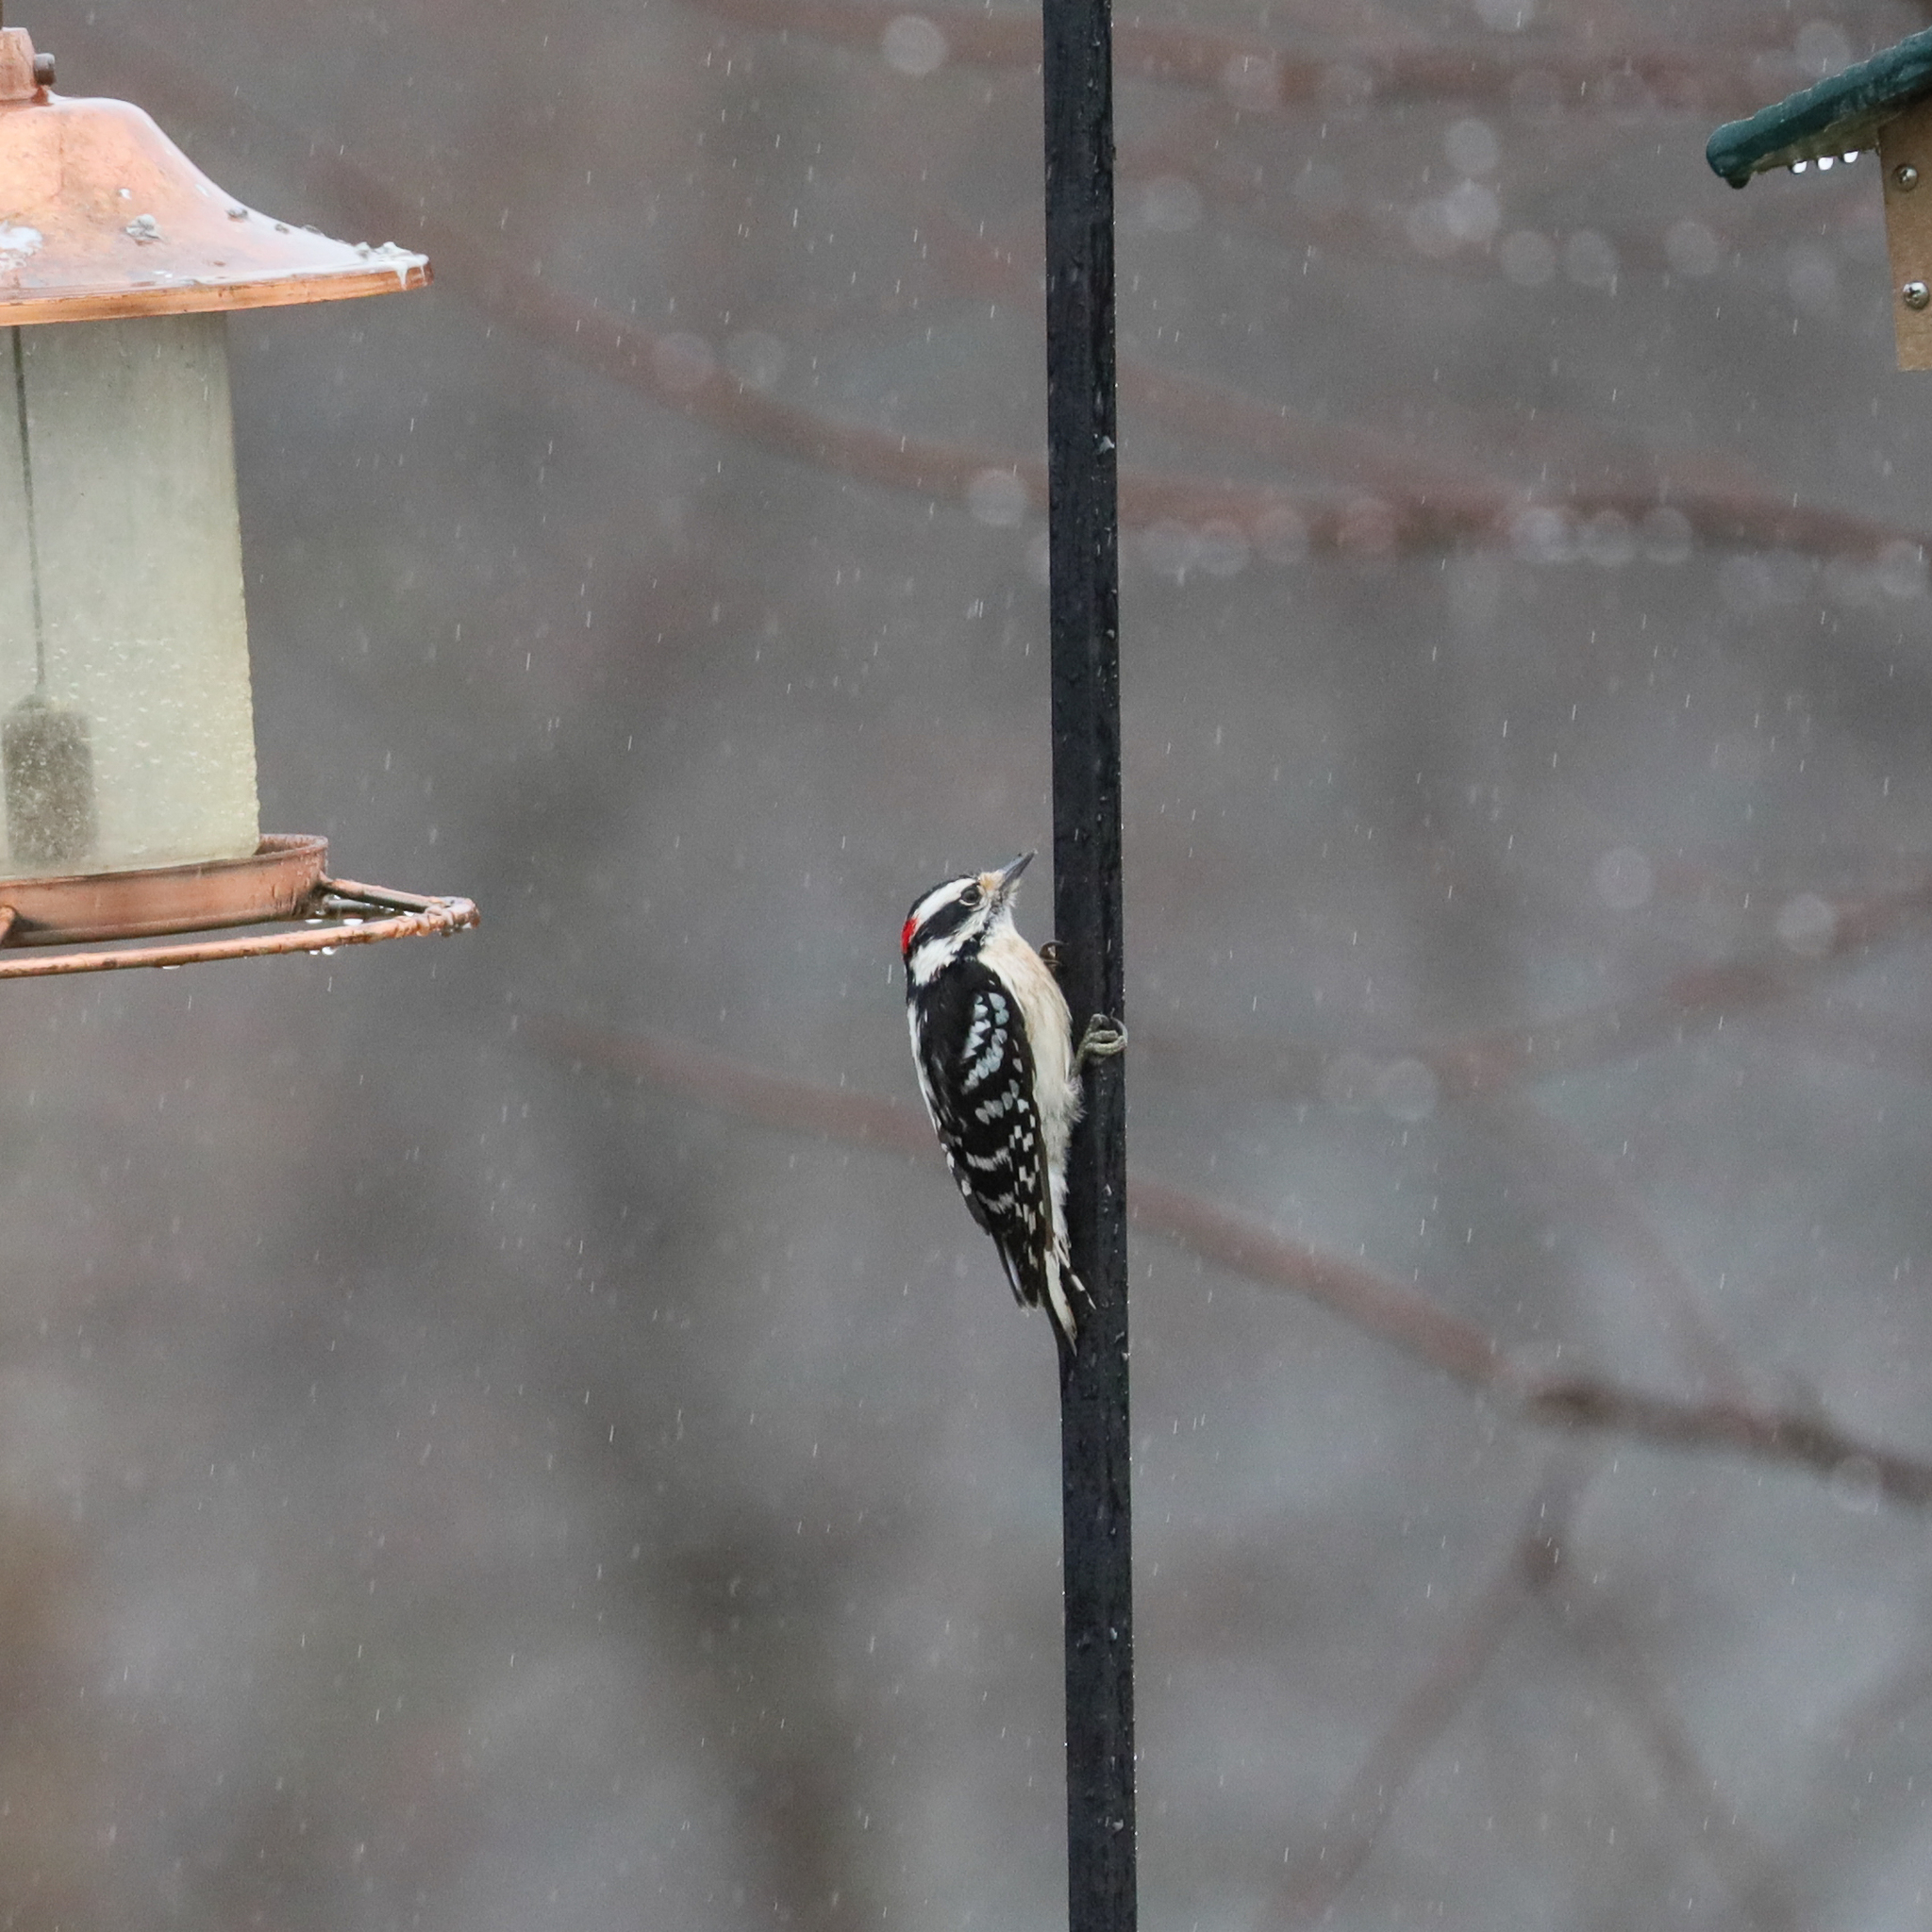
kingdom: Animalia
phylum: Chordata
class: Aves
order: Piciformes
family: Picidae
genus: Dryobates
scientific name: Dryobates pubescens
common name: Downy woodpecker
